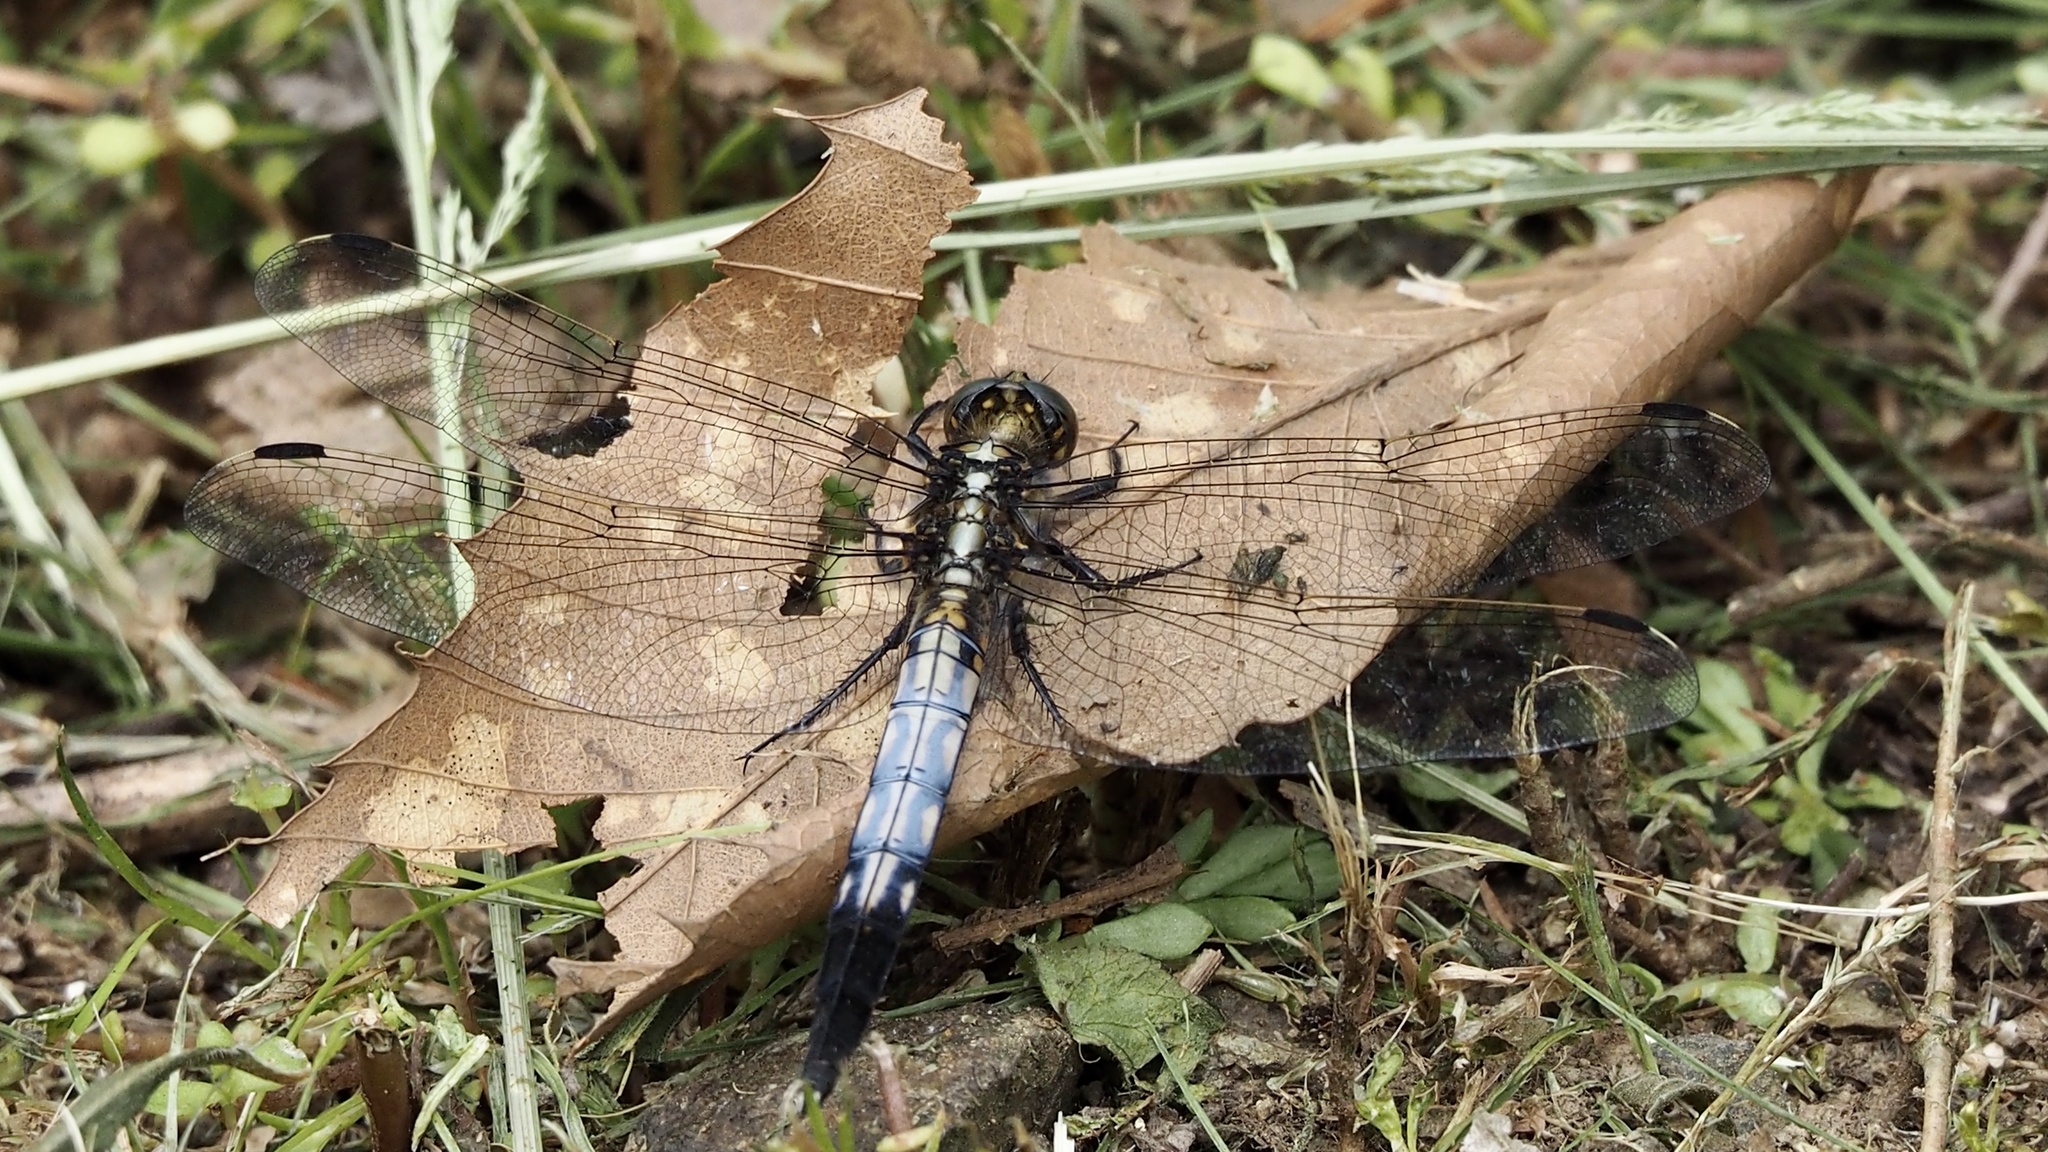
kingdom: Animalia
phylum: Arthropoda
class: Insecta
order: Odonata
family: Libellulidae
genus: Orthetrum
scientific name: Orthetrum albistylum
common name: White-tailed skimmer
